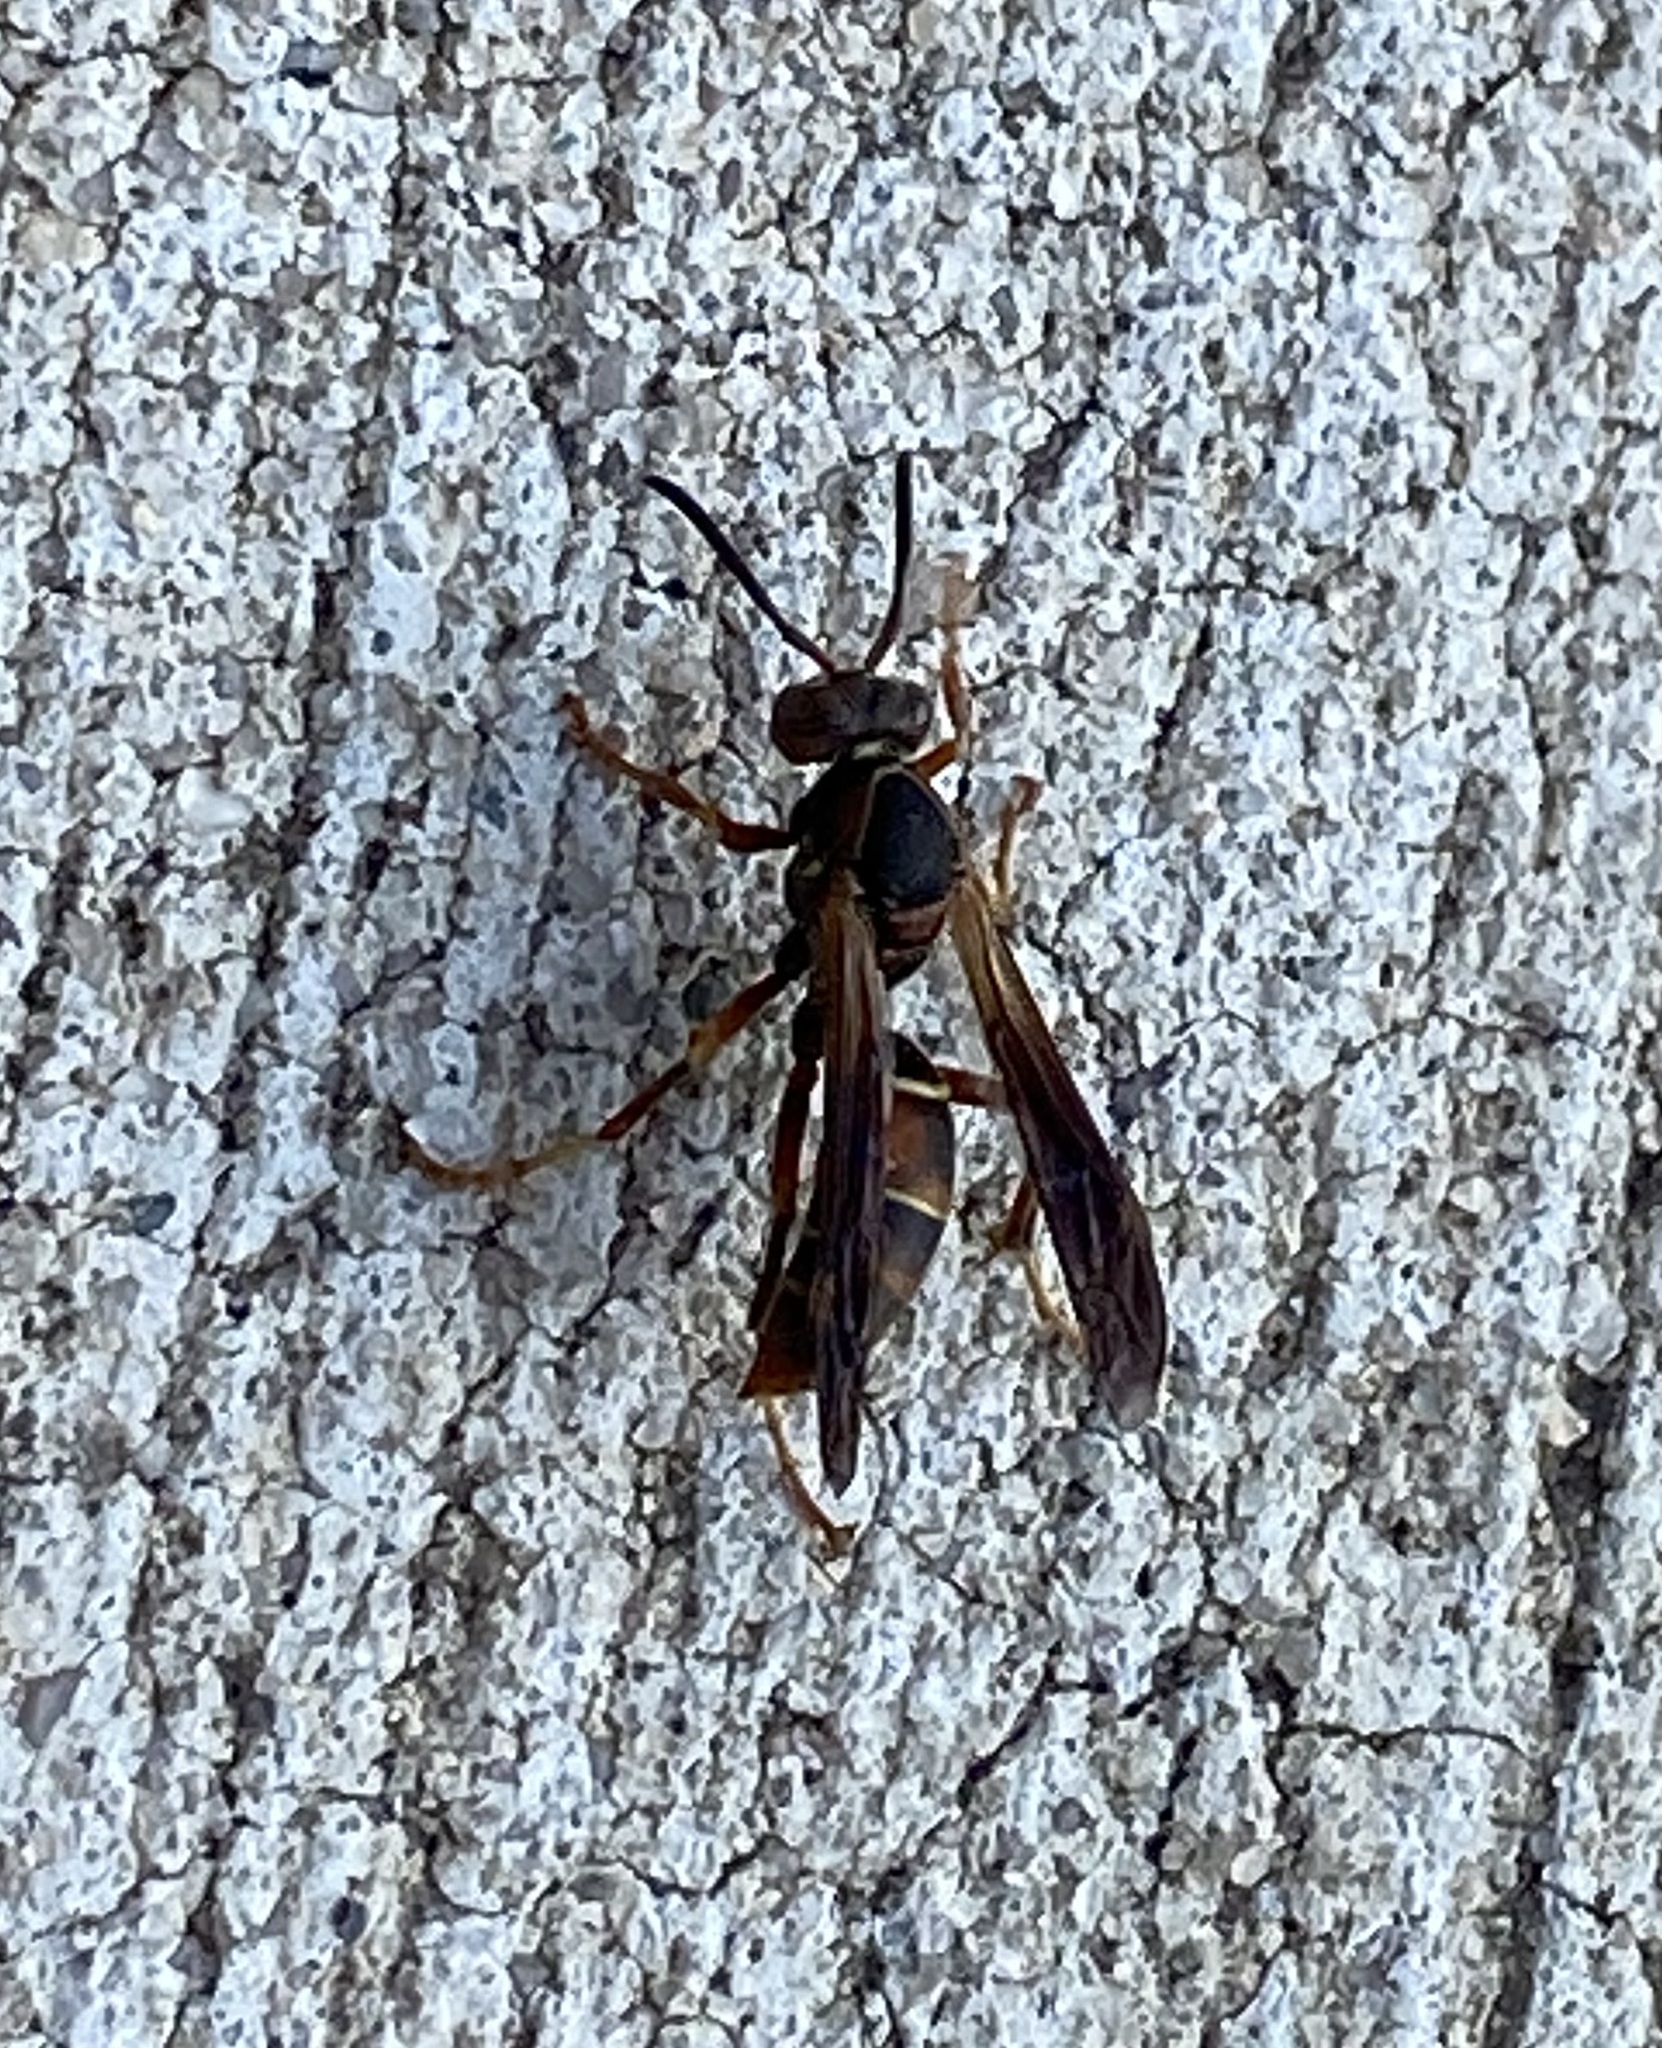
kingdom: Animalia
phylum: Arthropoda
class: Insecta
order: Hymenoptera
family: Eumenidae
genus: Polistes
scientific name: Polistes fuscatus
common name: Dark paper wasp
